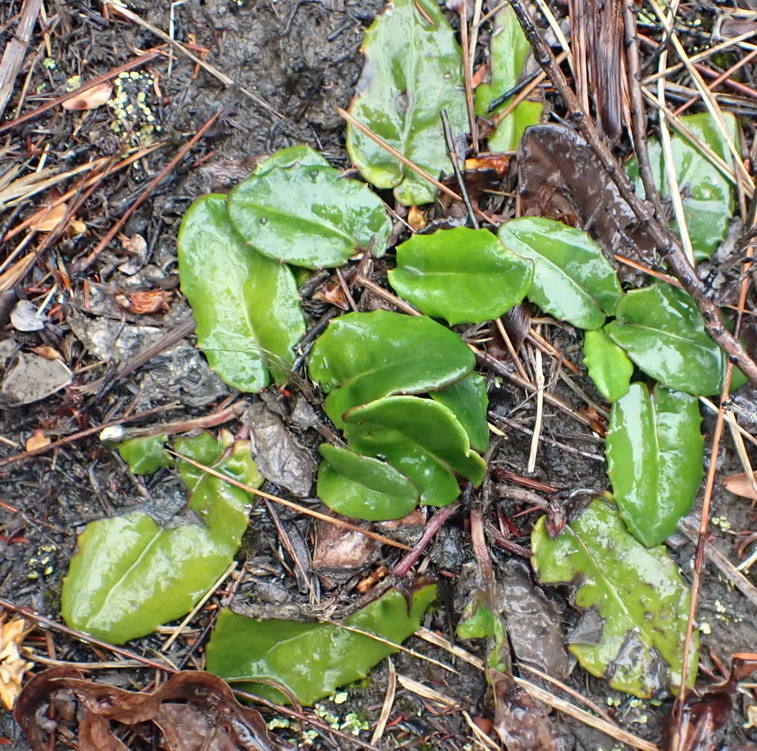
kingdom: Plantae
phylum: Tracheophyta
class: Magnoliopsida
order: Asterales
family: Asteraceae
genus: Gerbera
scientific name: Gerbera serrata
